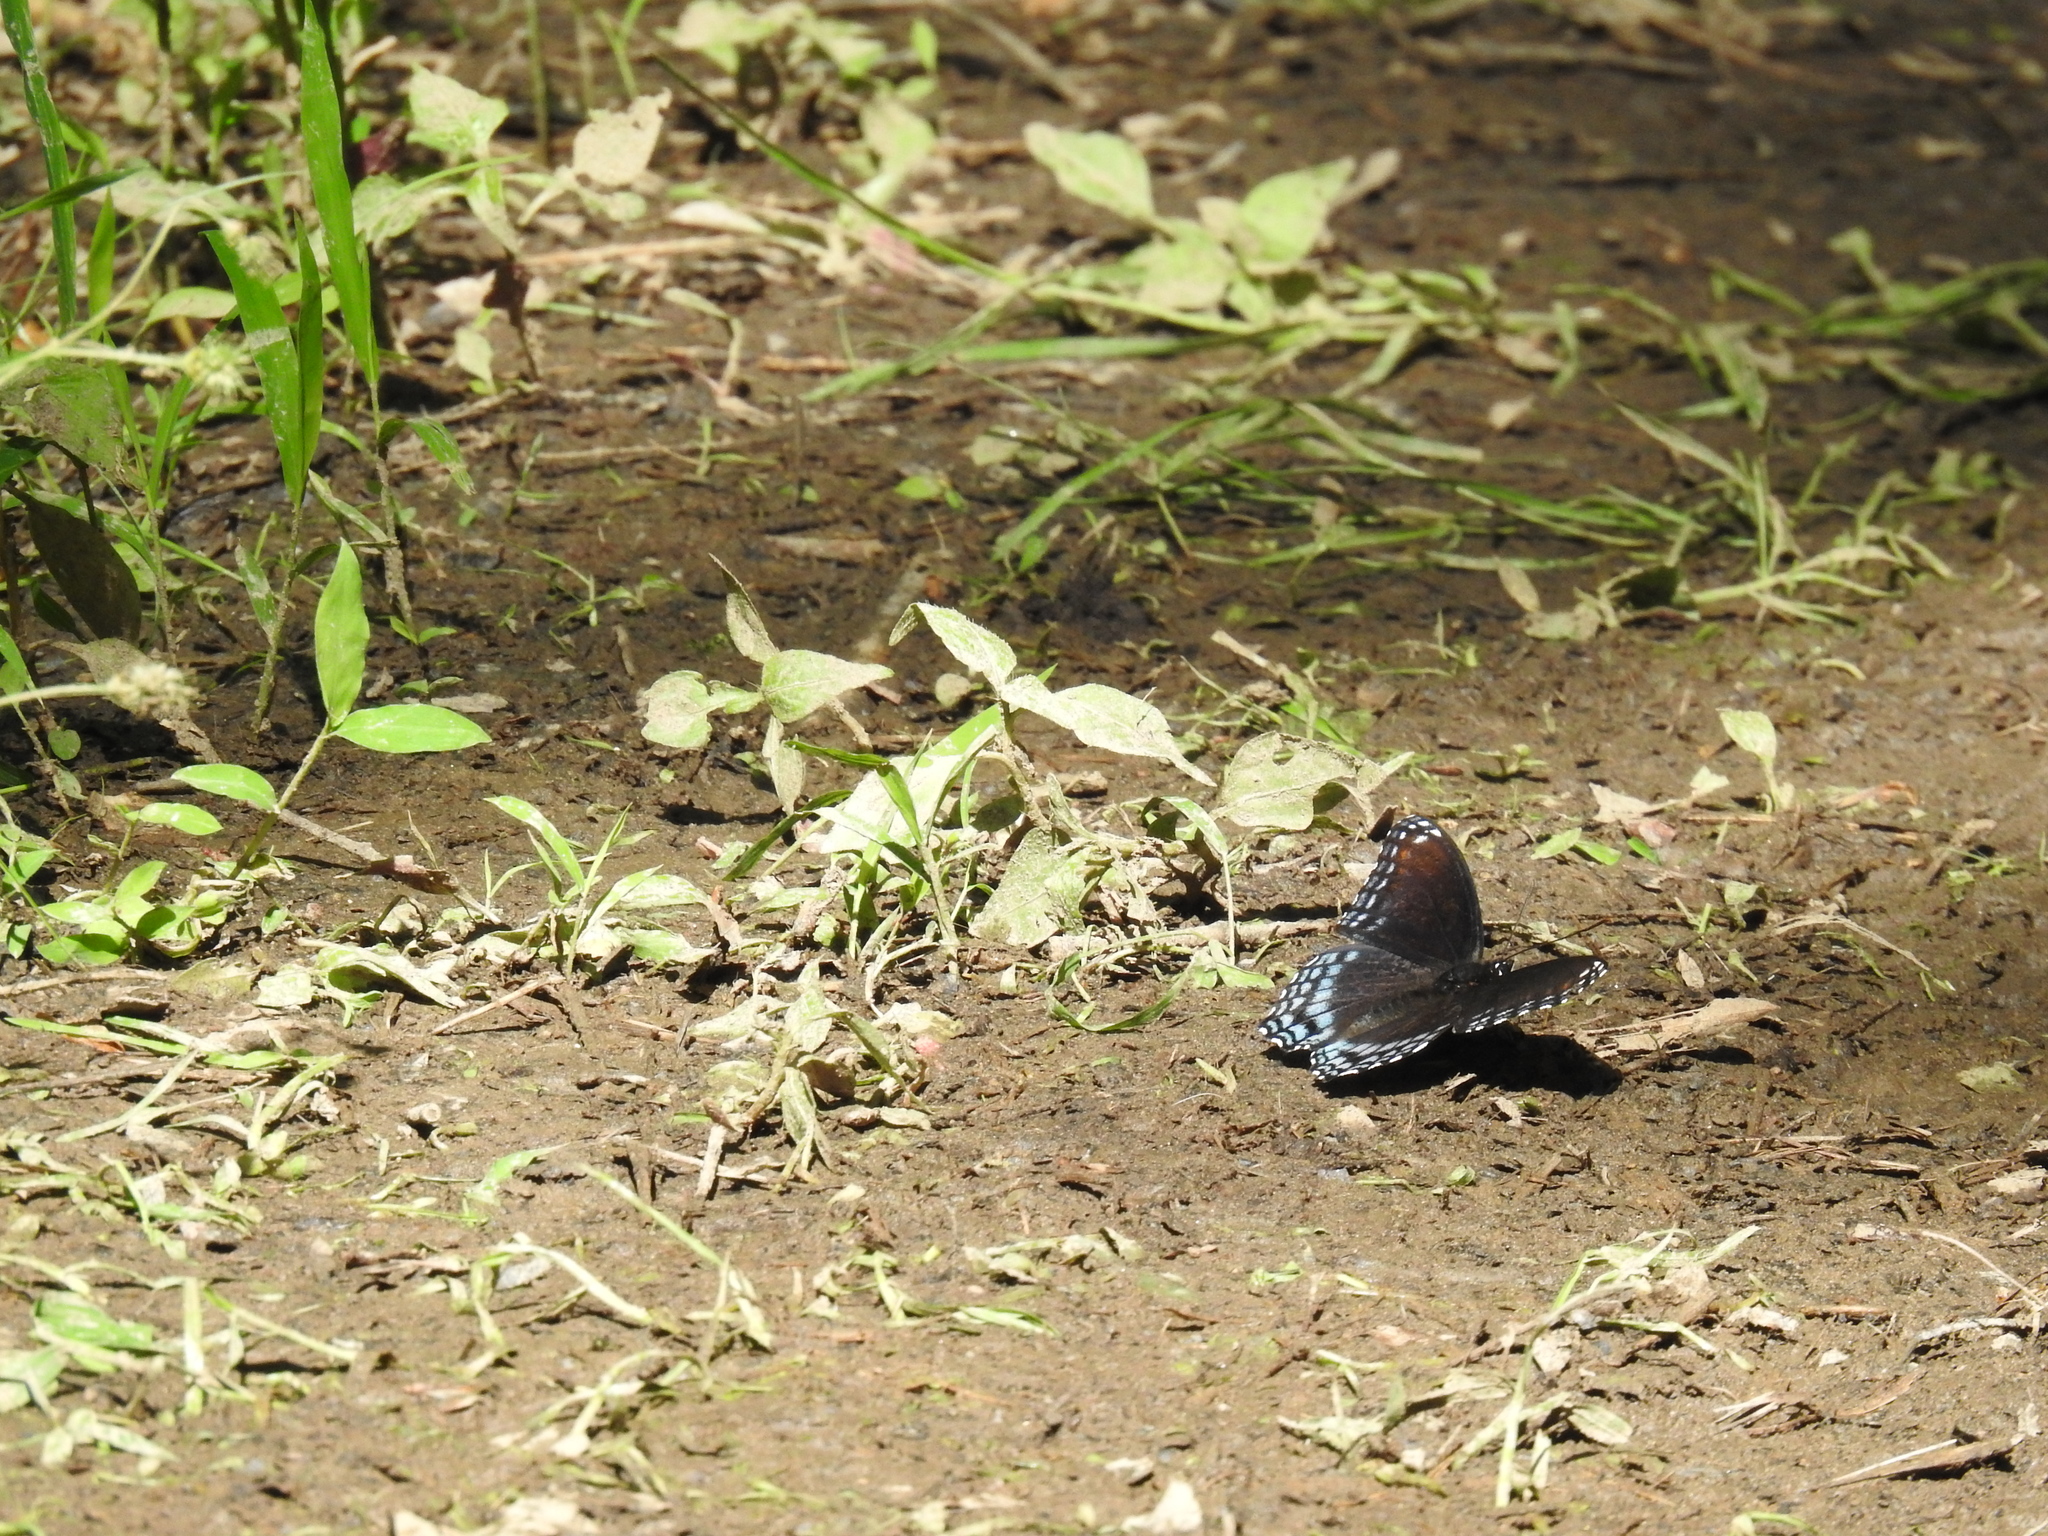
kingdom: Animalia
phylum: Arthropoda
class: Insecta
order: Lepidoptera
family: Nymphalidae
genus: Limenitis
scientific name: Limenitis astyanax
